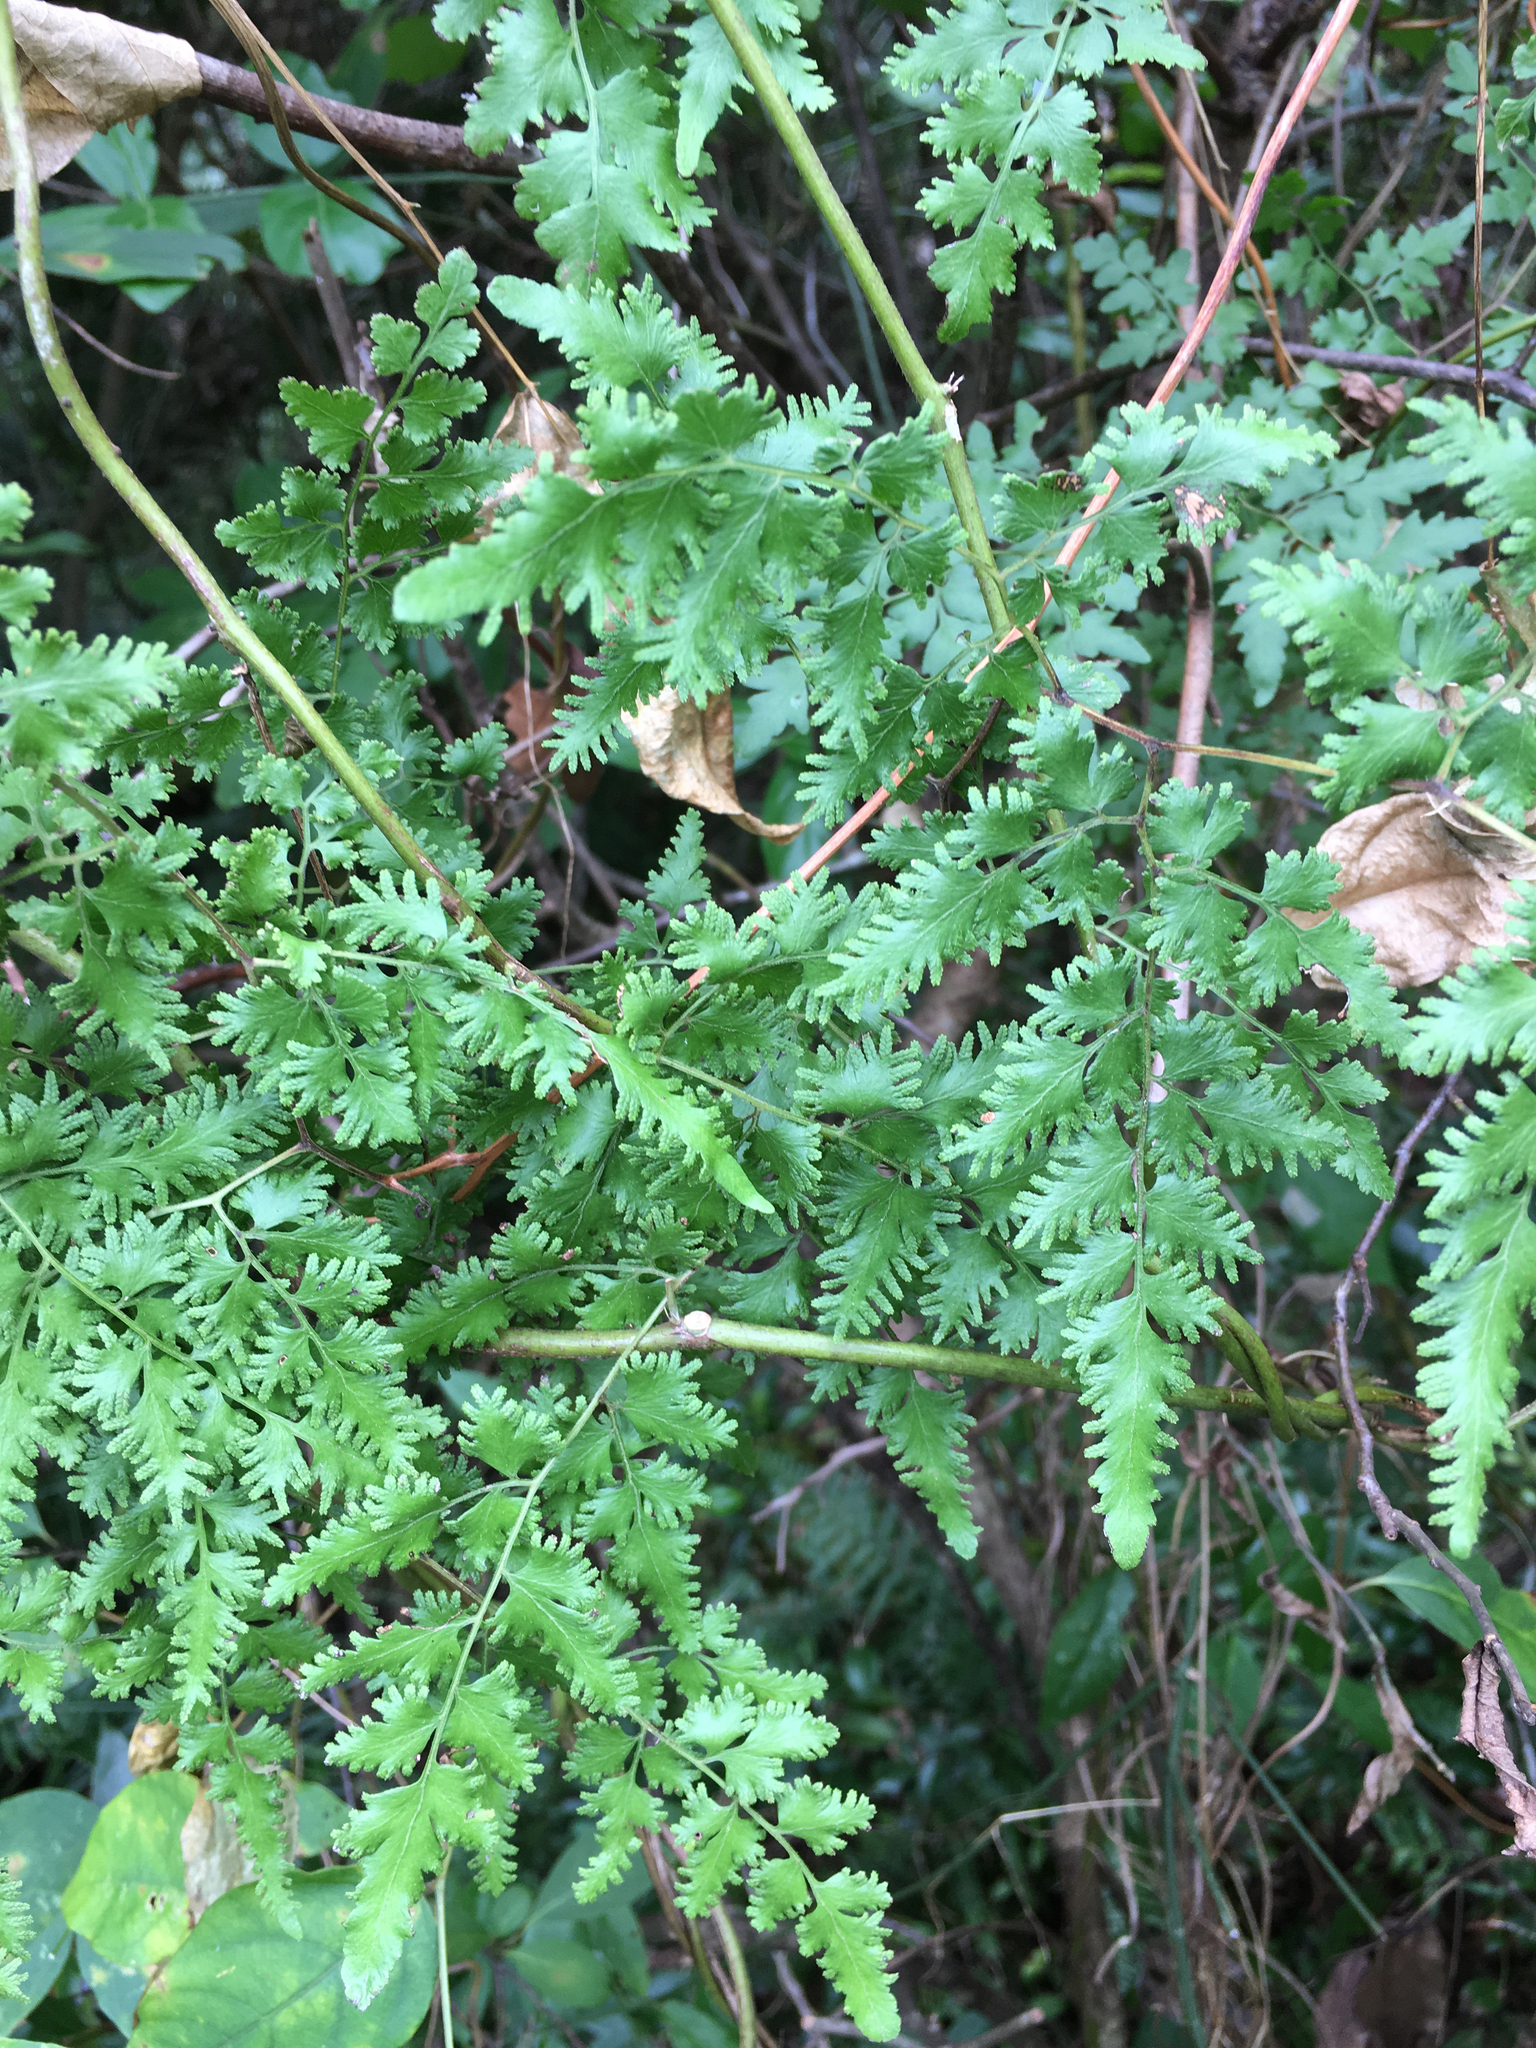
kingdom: Plantae
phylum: Tracheophyta
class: Polypodiopsida
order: Schizaeales
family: Lygodiaceae
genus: Lygodium
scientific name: Lygodium japonicum
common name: Japanese climbing fern
